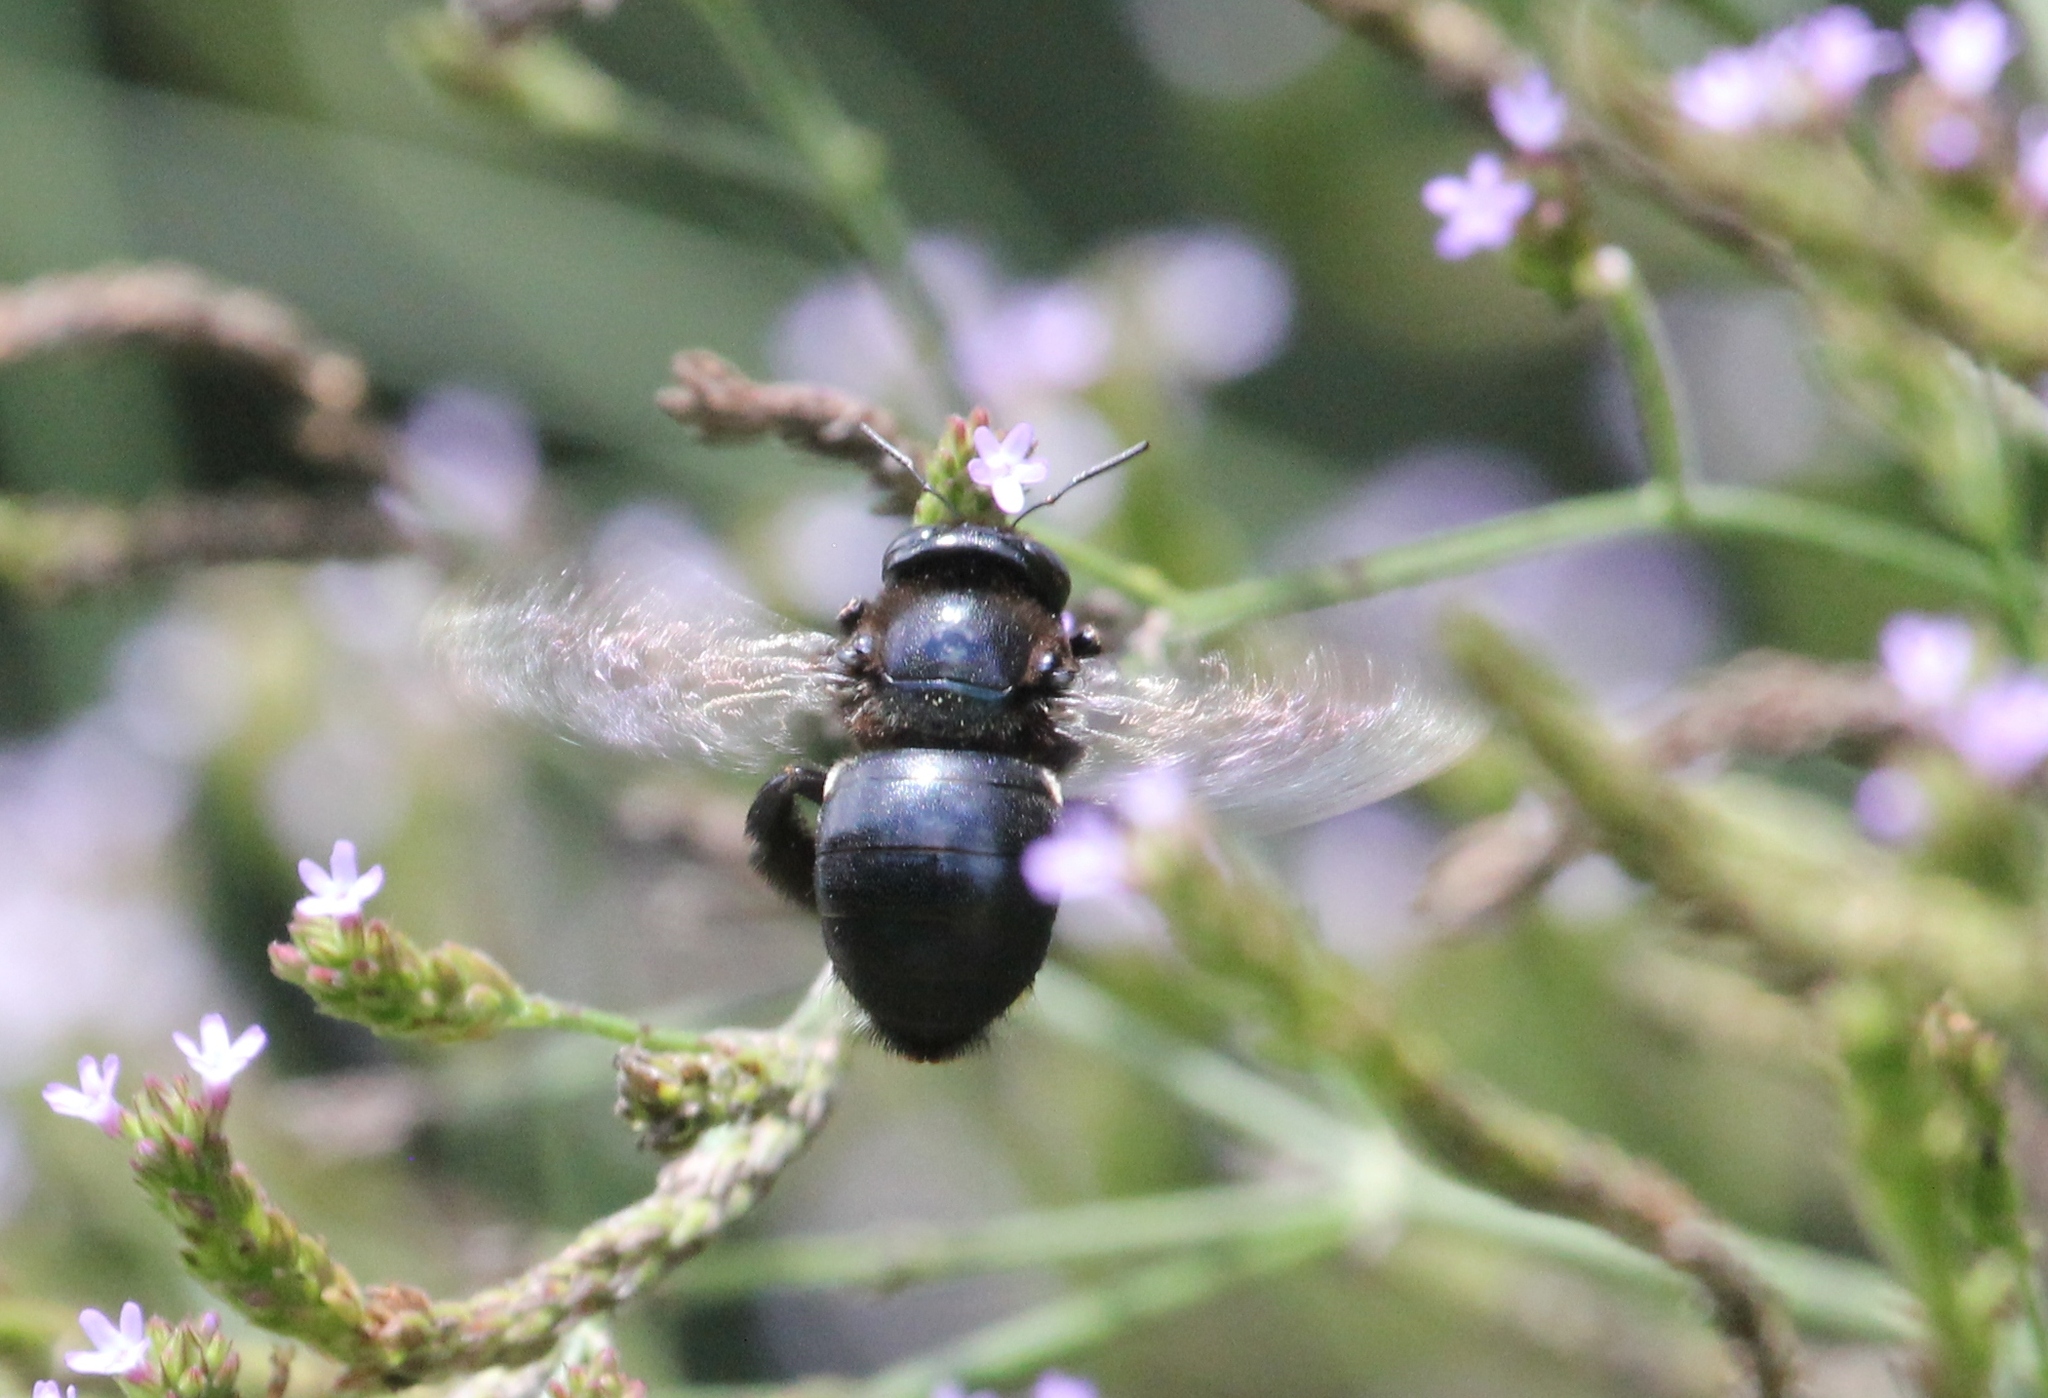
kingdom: Animalia
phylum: Arthropoda
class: Insecta
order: Hymenoptera
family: Apidae
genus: Xylocopa
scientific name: Xylocopa micans
